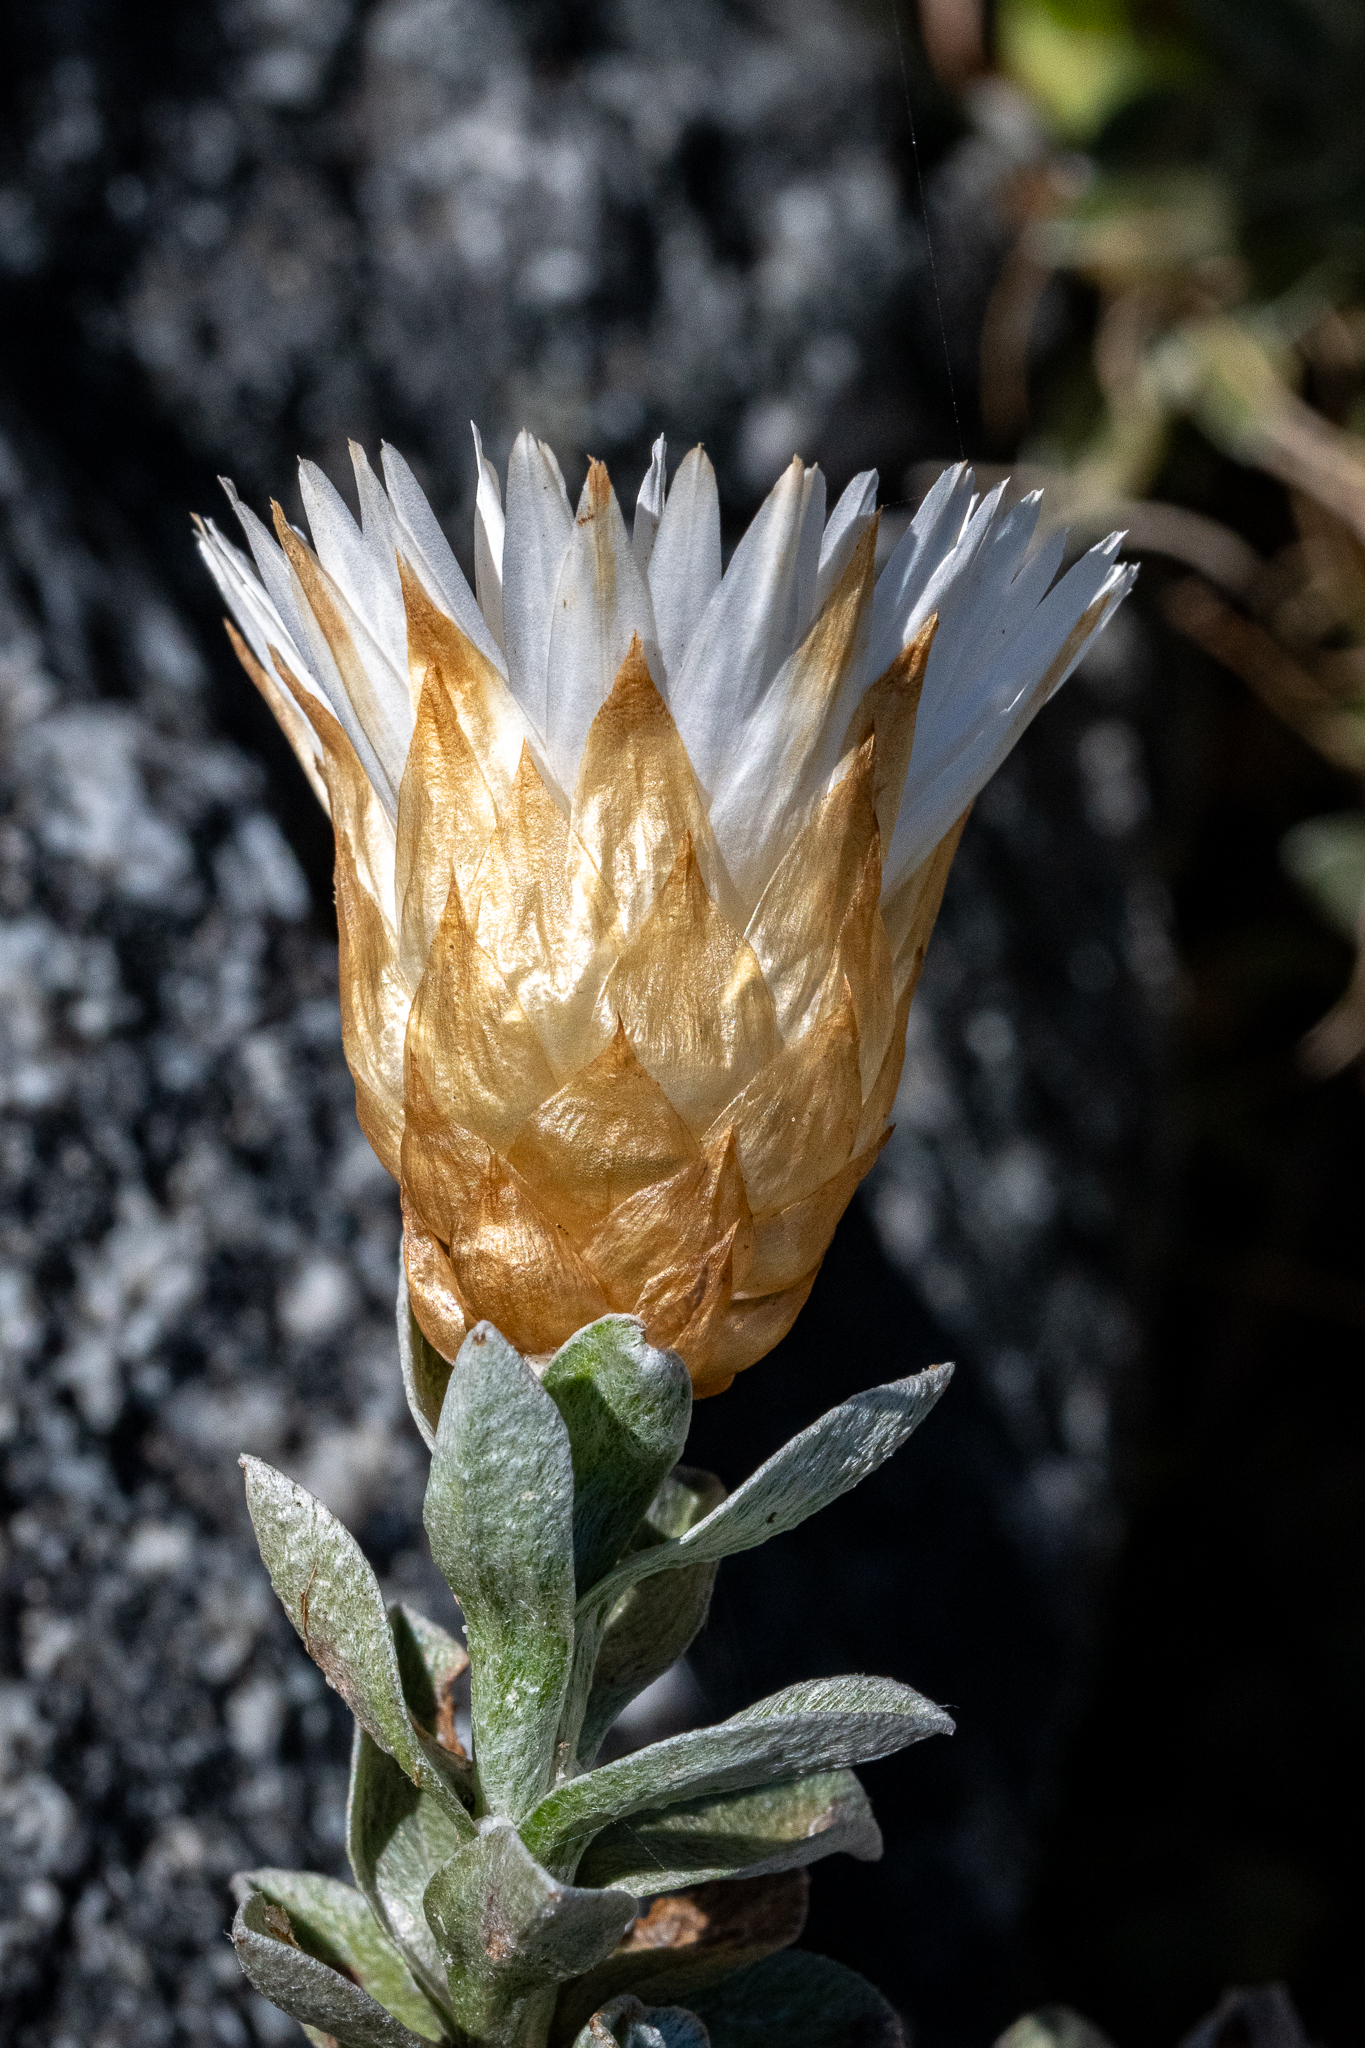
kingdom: Plantae
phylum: Tracheophyta
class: Magnoliopsida
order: Asterales
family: Asteraceae
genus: Helichrysum
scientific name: Helichrysum retortum
